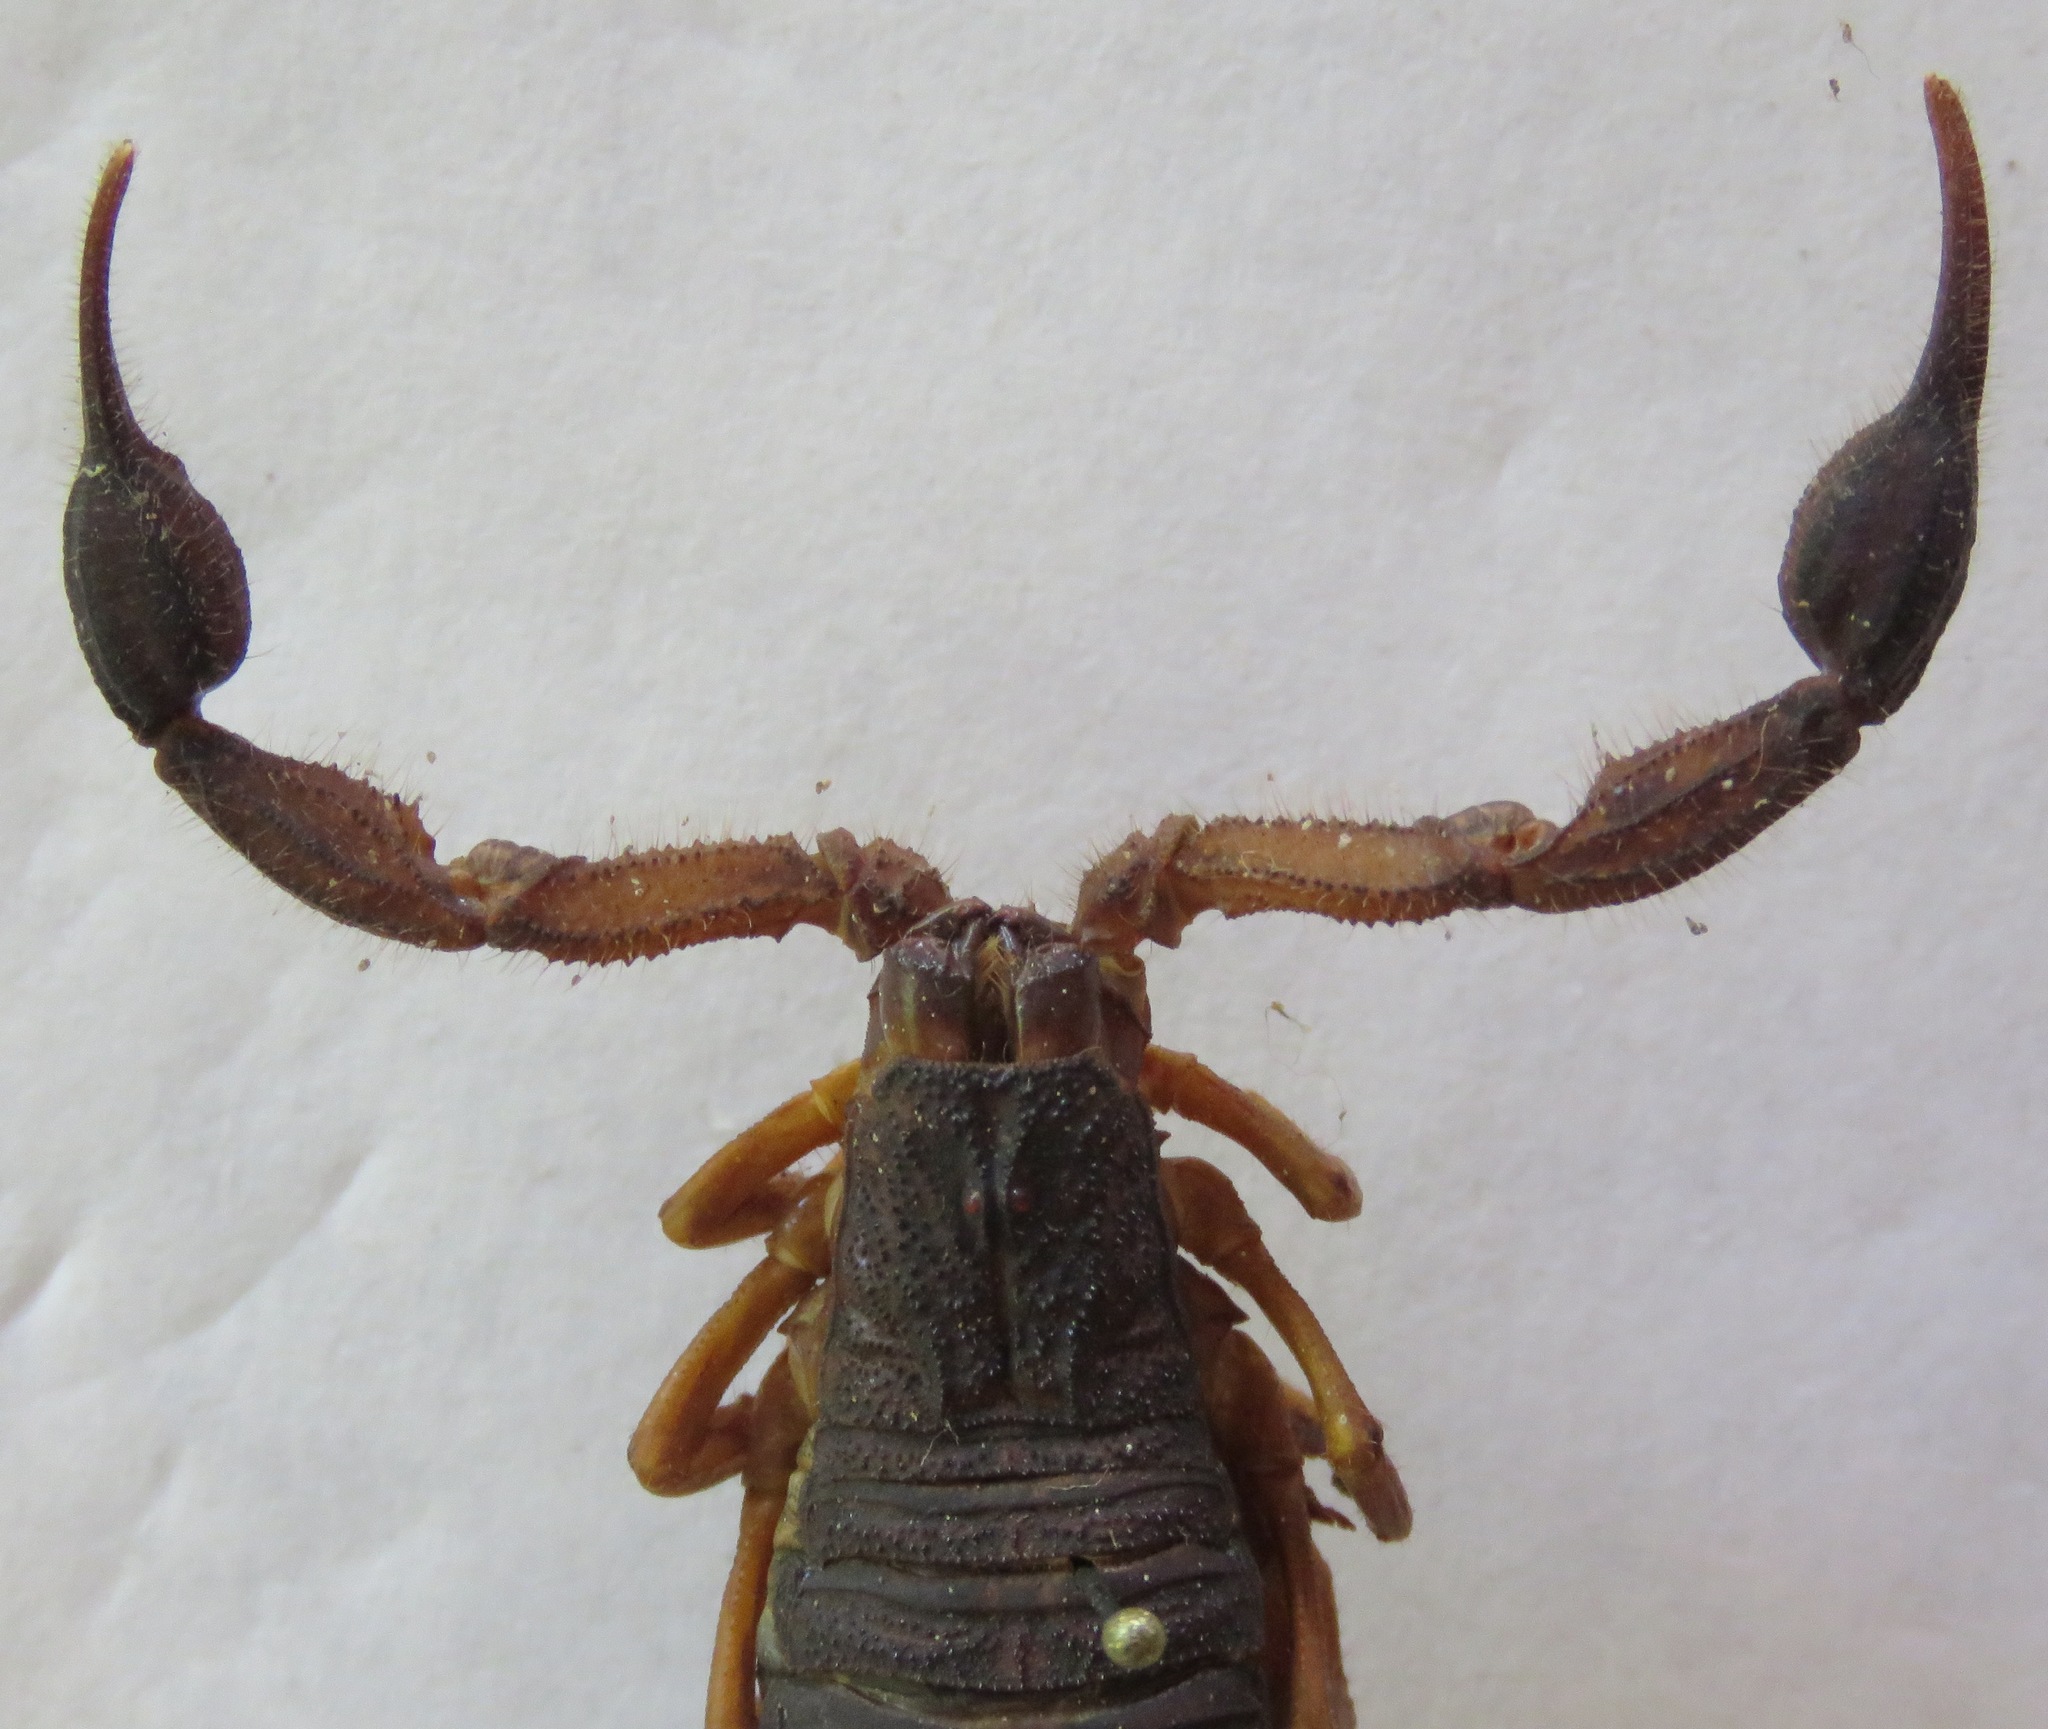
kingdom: Animalia
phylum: Arthropoda
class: Arachnida
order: Scorpiones
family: Buthidae
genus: Centruroides
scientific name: Centruroides edwardsii
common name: Scorpions
